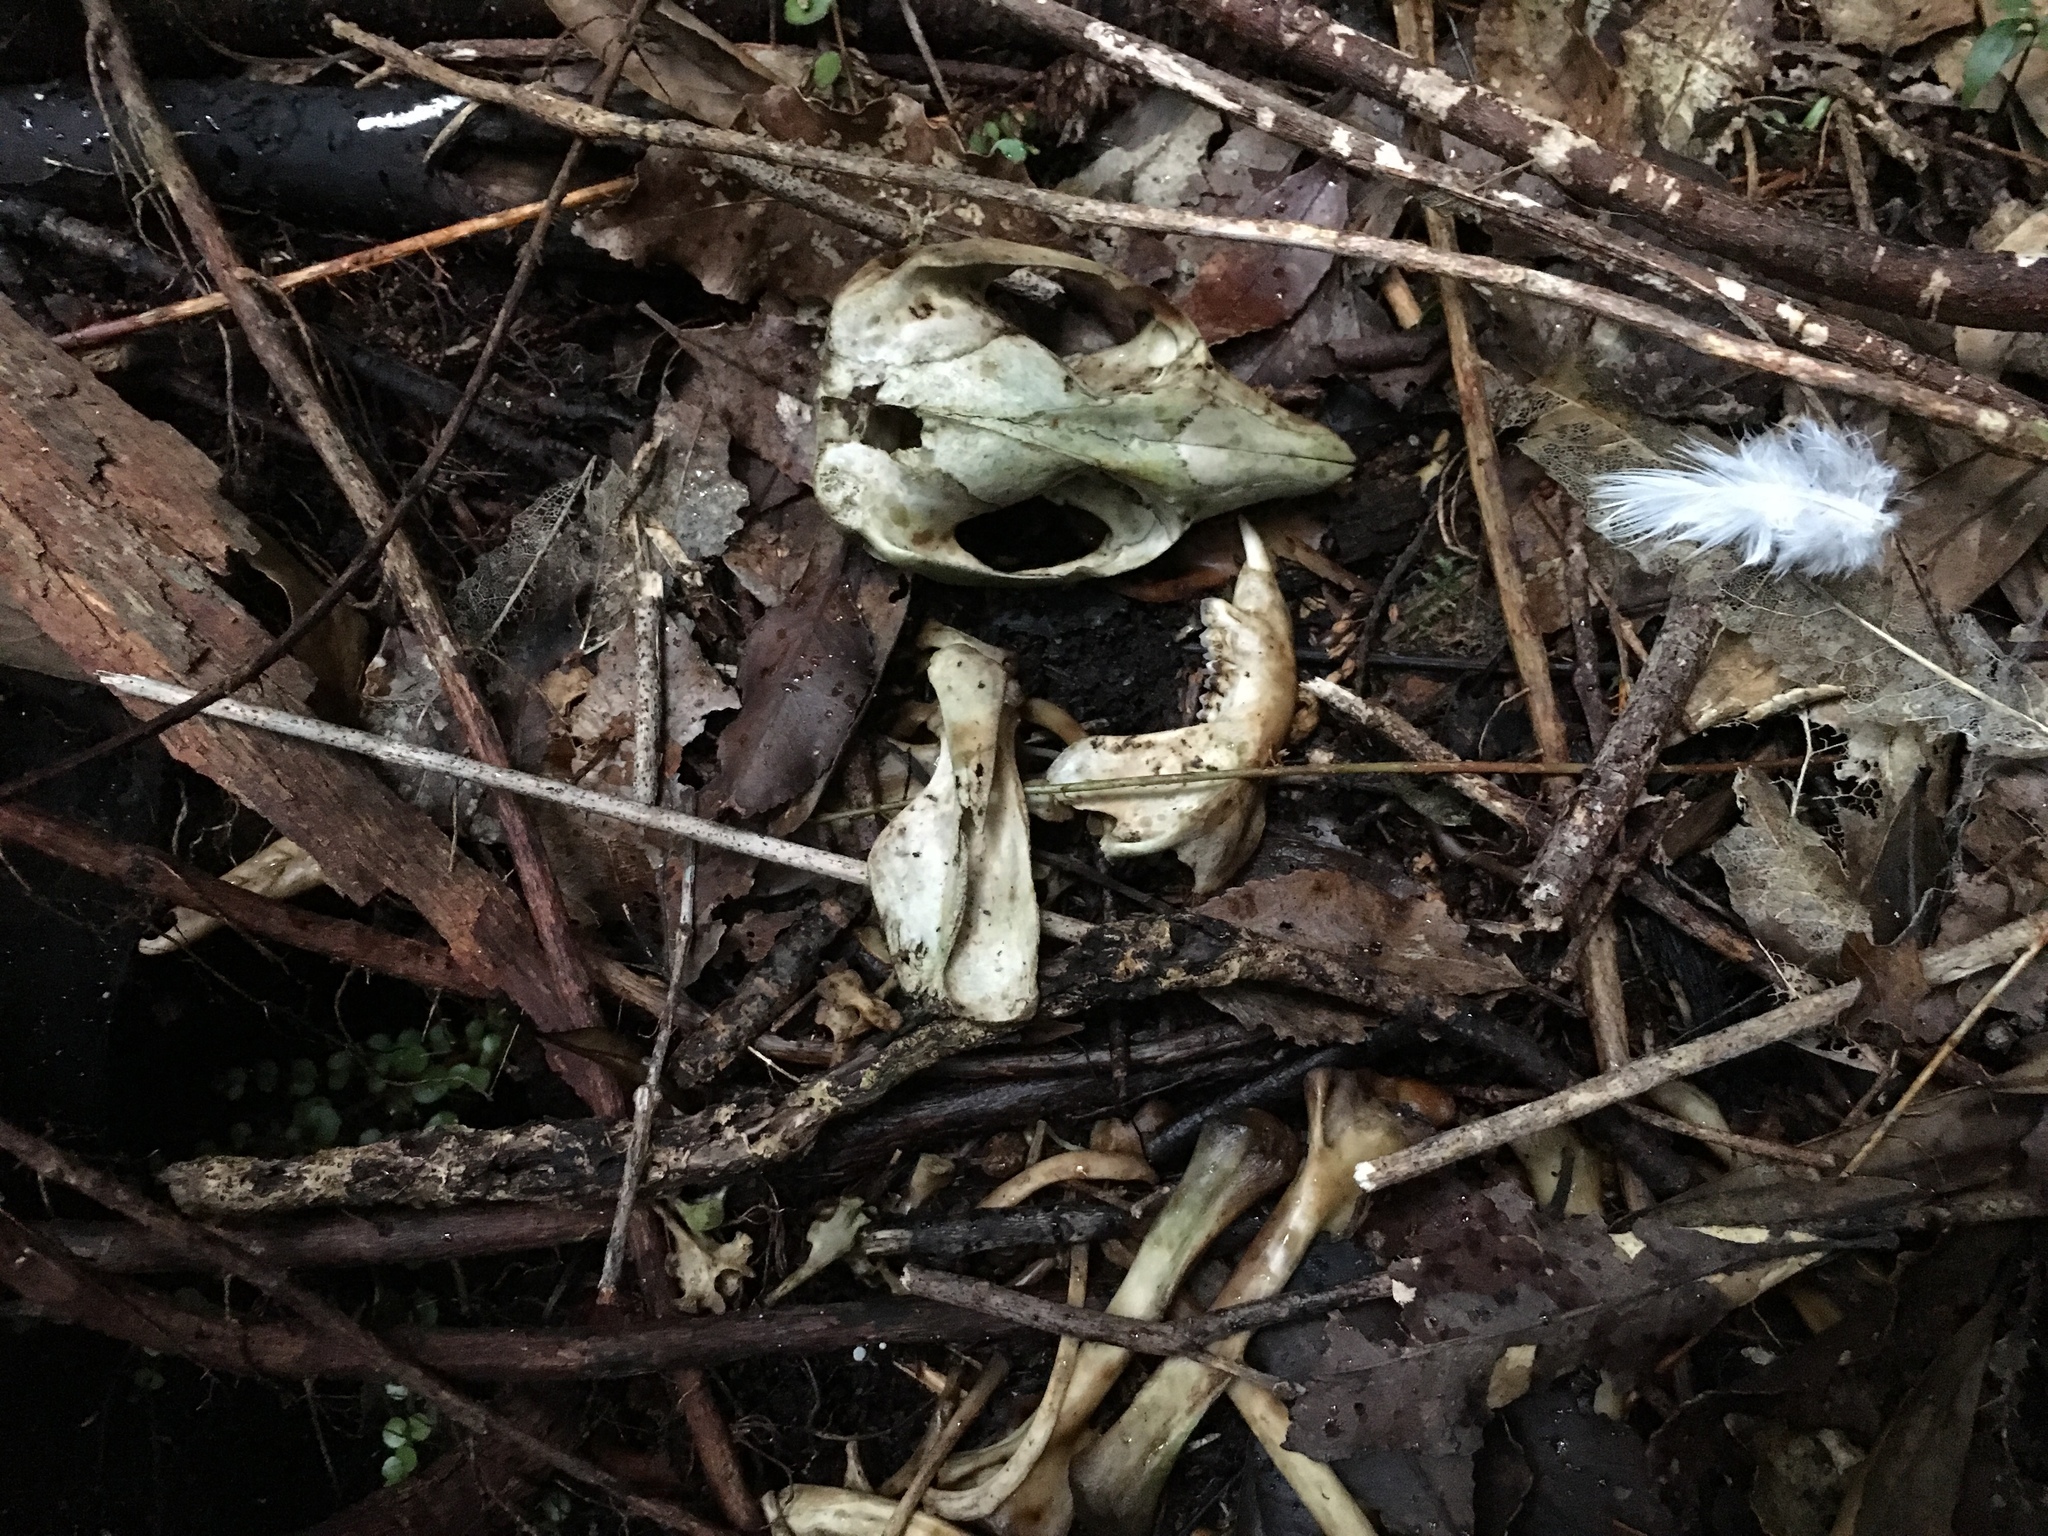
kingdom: Animalia
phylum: Chordata
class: Mammalia
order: Diprotodontia
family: Phalangeridae
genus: Trichosurus
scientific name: Trichosurus vulpecula
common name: Common brushtail
